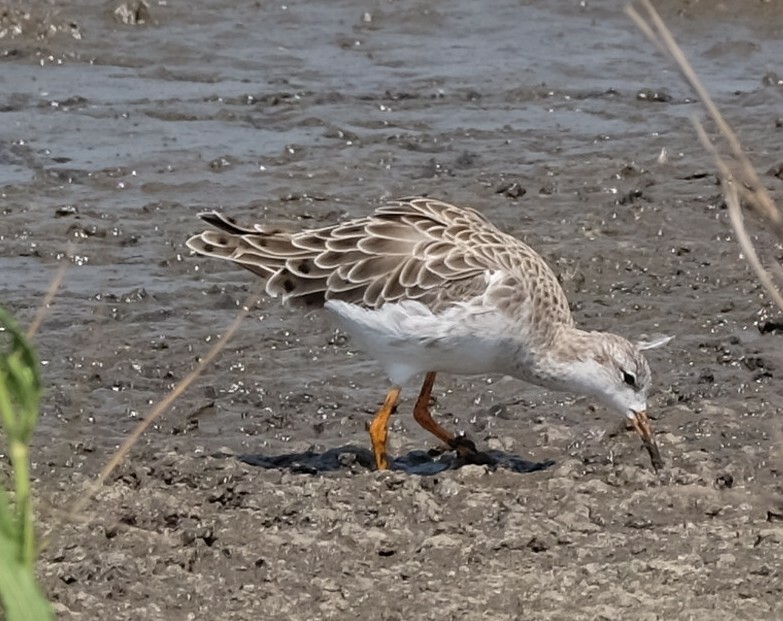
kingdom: Animalia
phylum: Chordata
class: Aves
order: Charadriiformes
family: Scolopacidae
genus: Calidris
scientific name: Calidris pugnax
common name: Ruff
